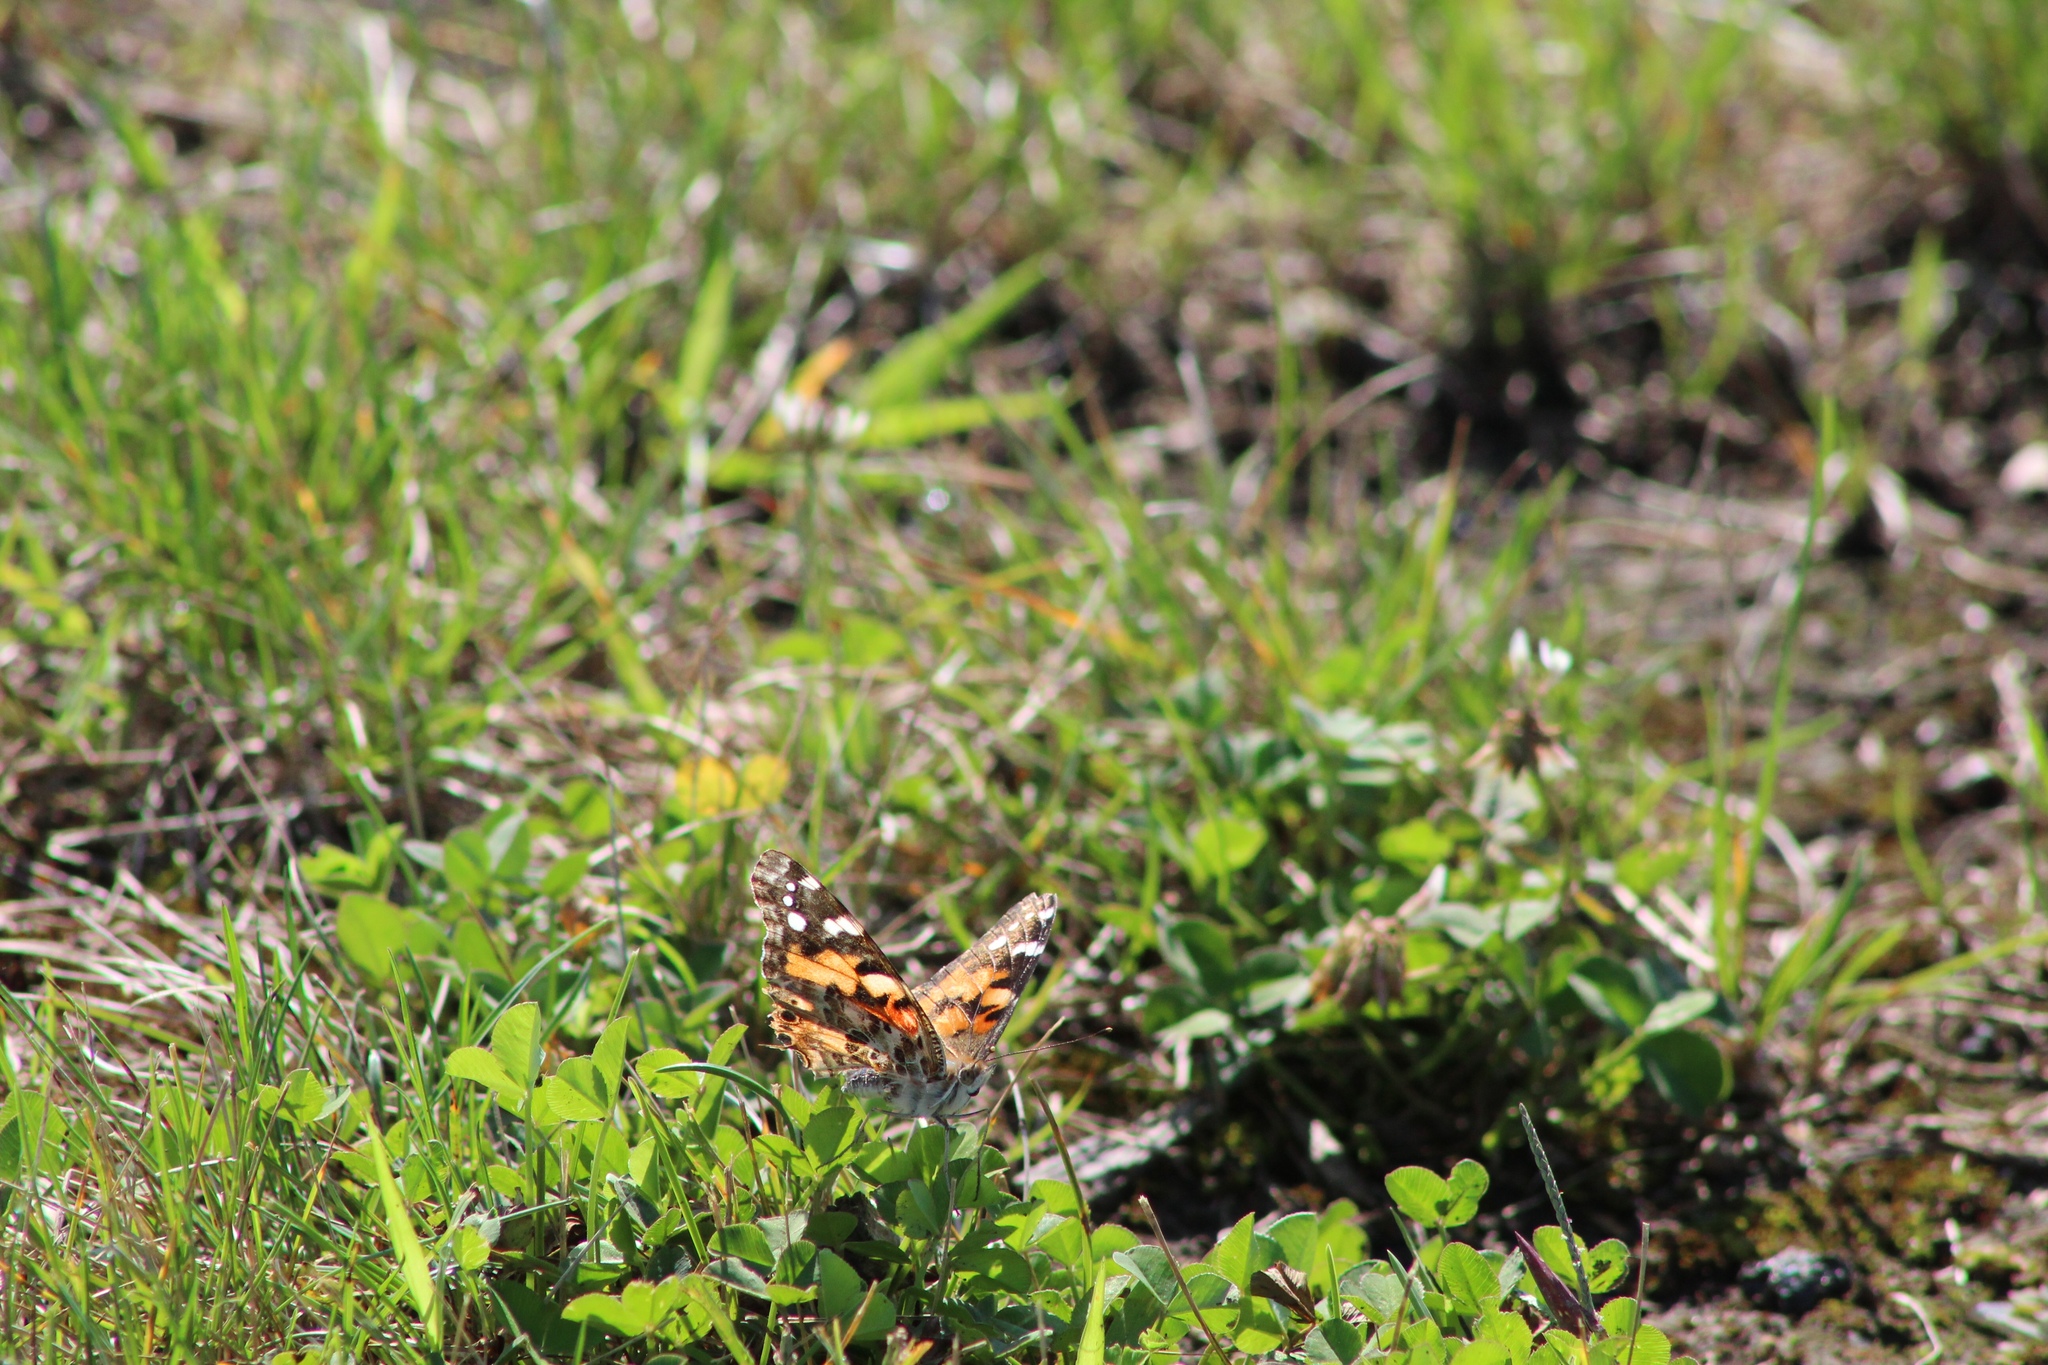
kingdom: Animalia
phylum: Arthropoda
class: Insecta
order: Lepidoptera
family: Nymphalidae
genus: Vanessa
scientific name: Vanessa cardui
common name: Painted lady
